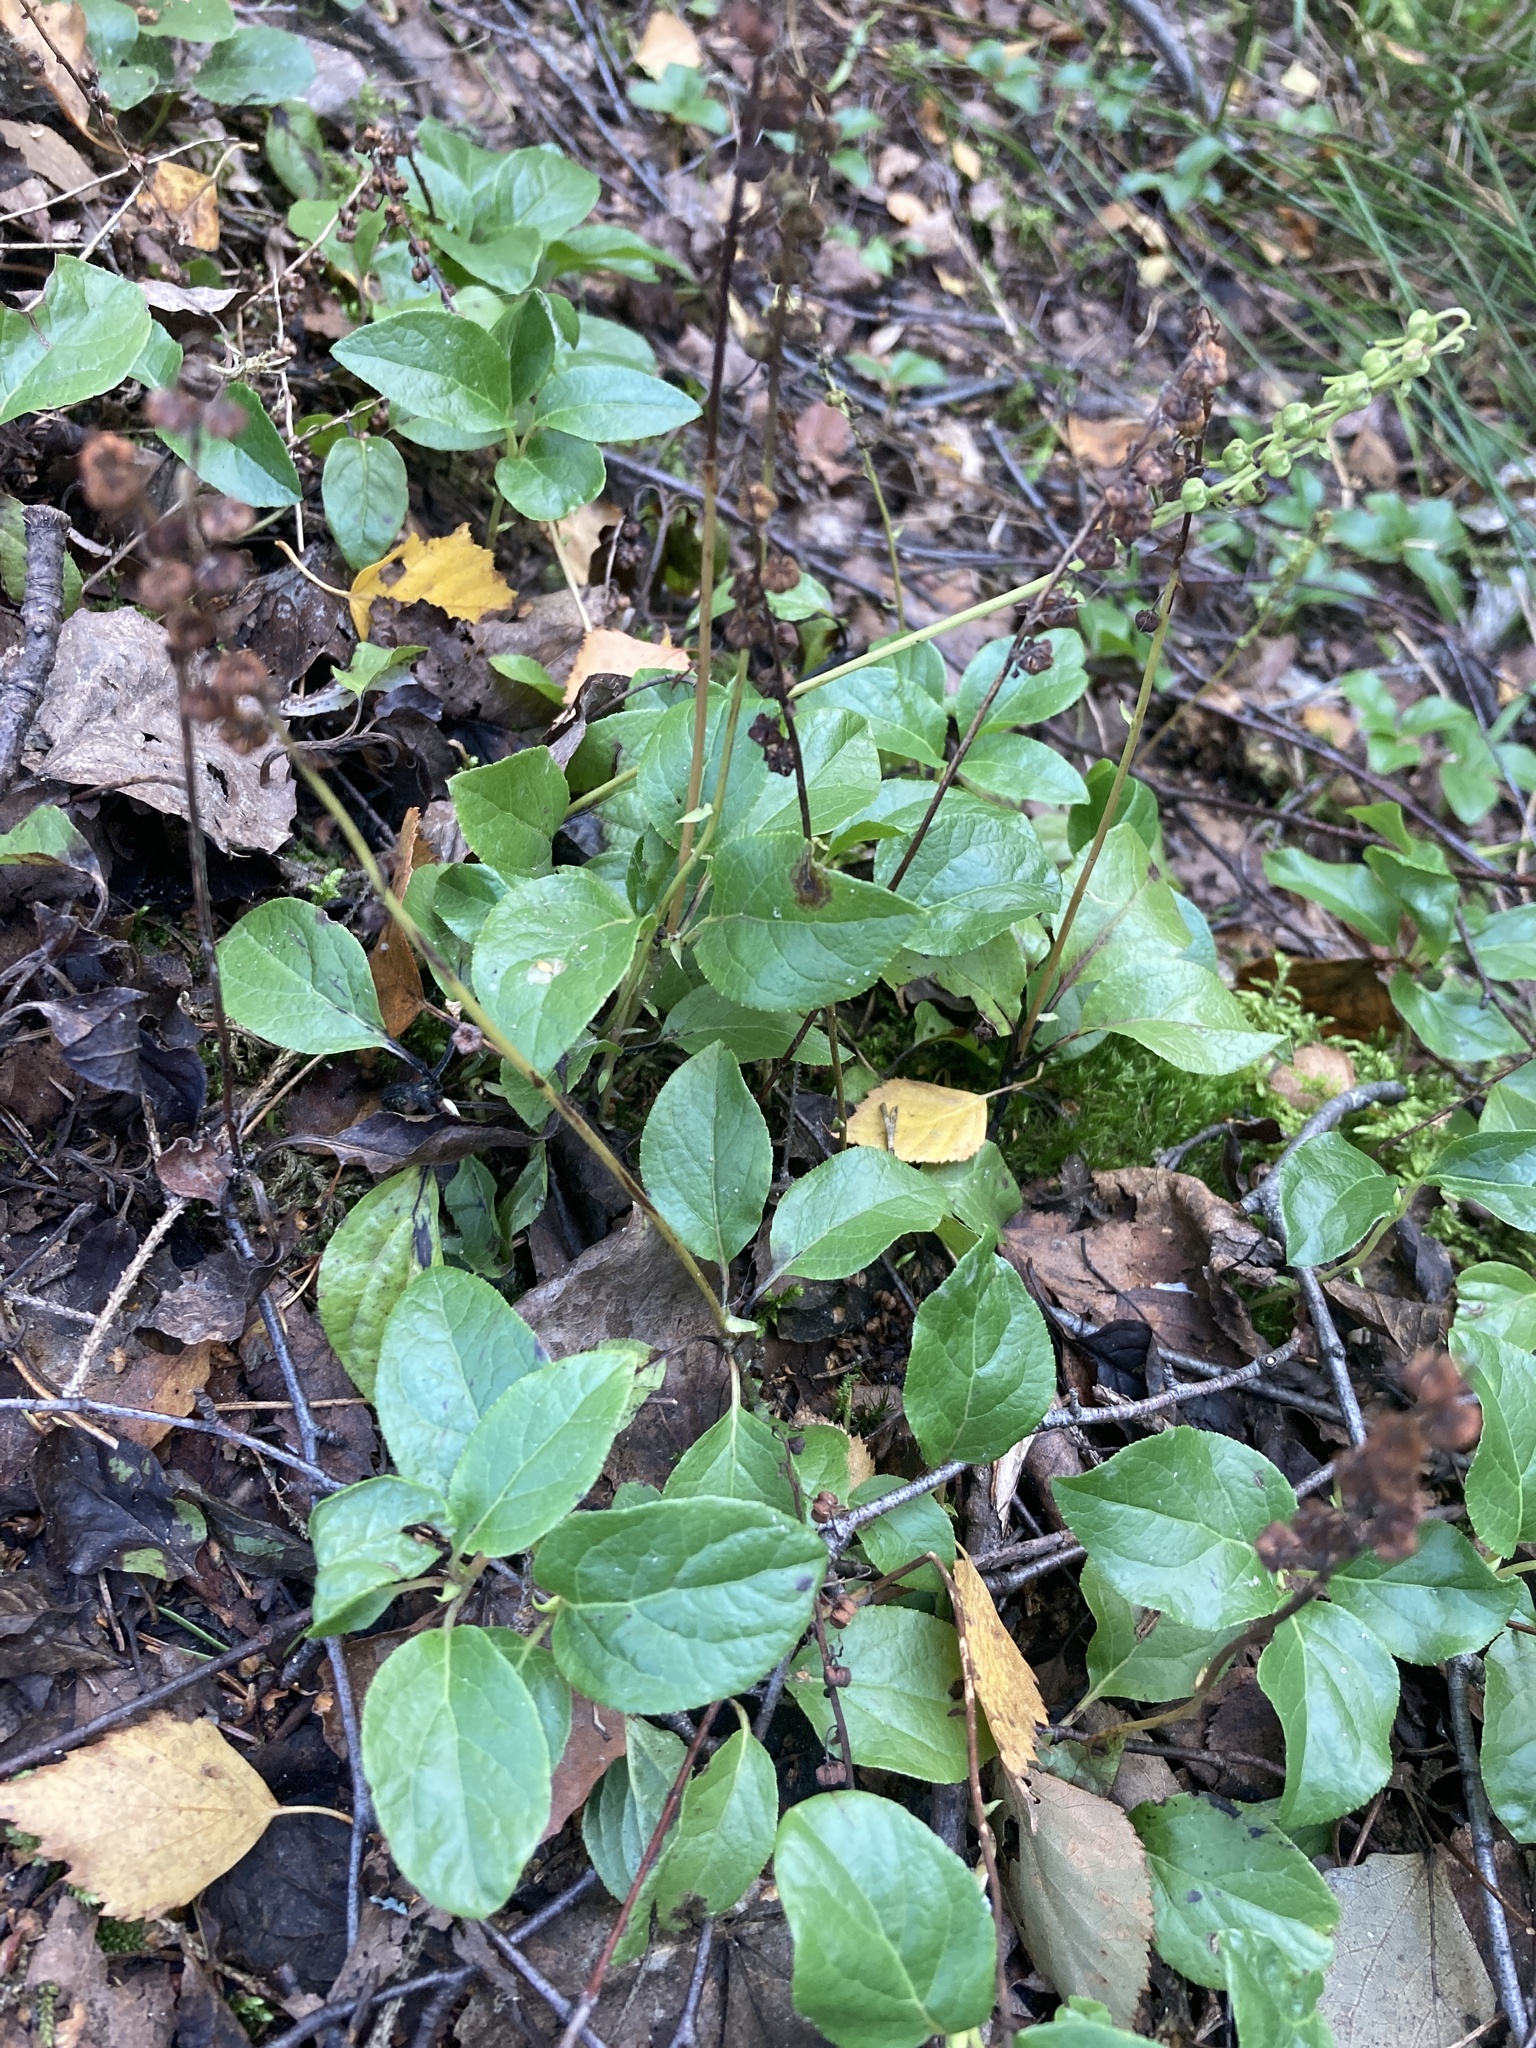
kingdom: Plantae
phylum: Tracheophyta
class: Magnoliopsida
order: Ericales
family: Ericaceae
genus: Orthilia
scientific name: Orthilia secunda
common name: One-sided orthilia
